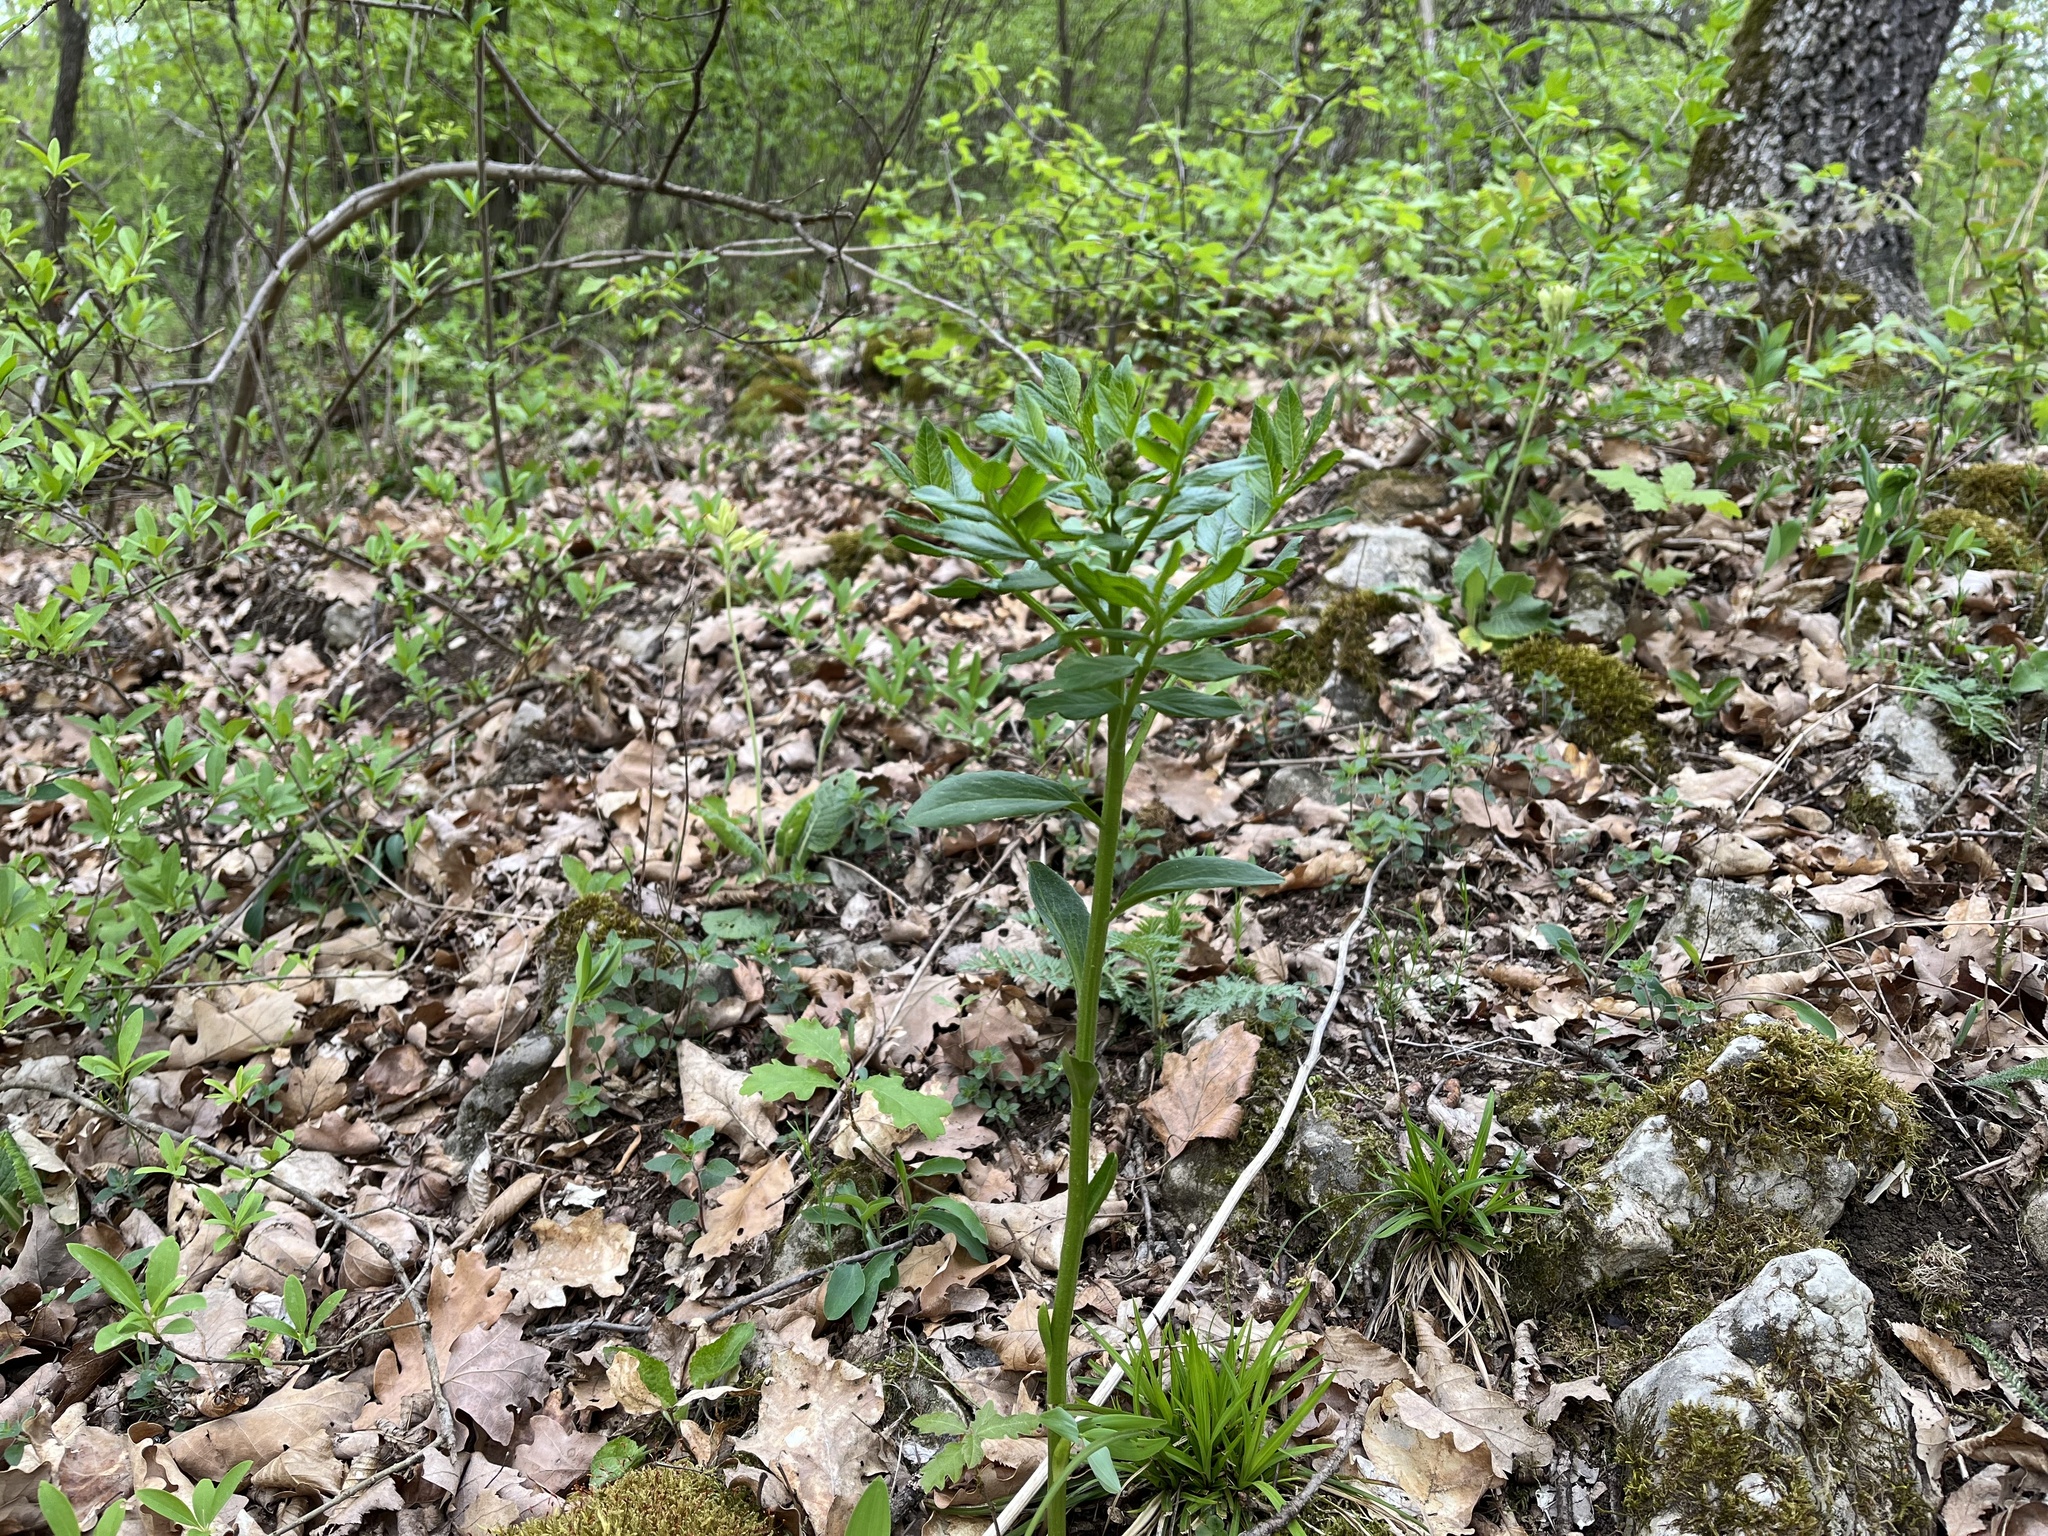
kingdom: Plantae
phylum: Tracheophyta
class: Magnoliopsida
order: Sapindales
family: Rutaceae
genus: Dictamnus
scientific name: Dictamnus albus
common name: Gasplant
